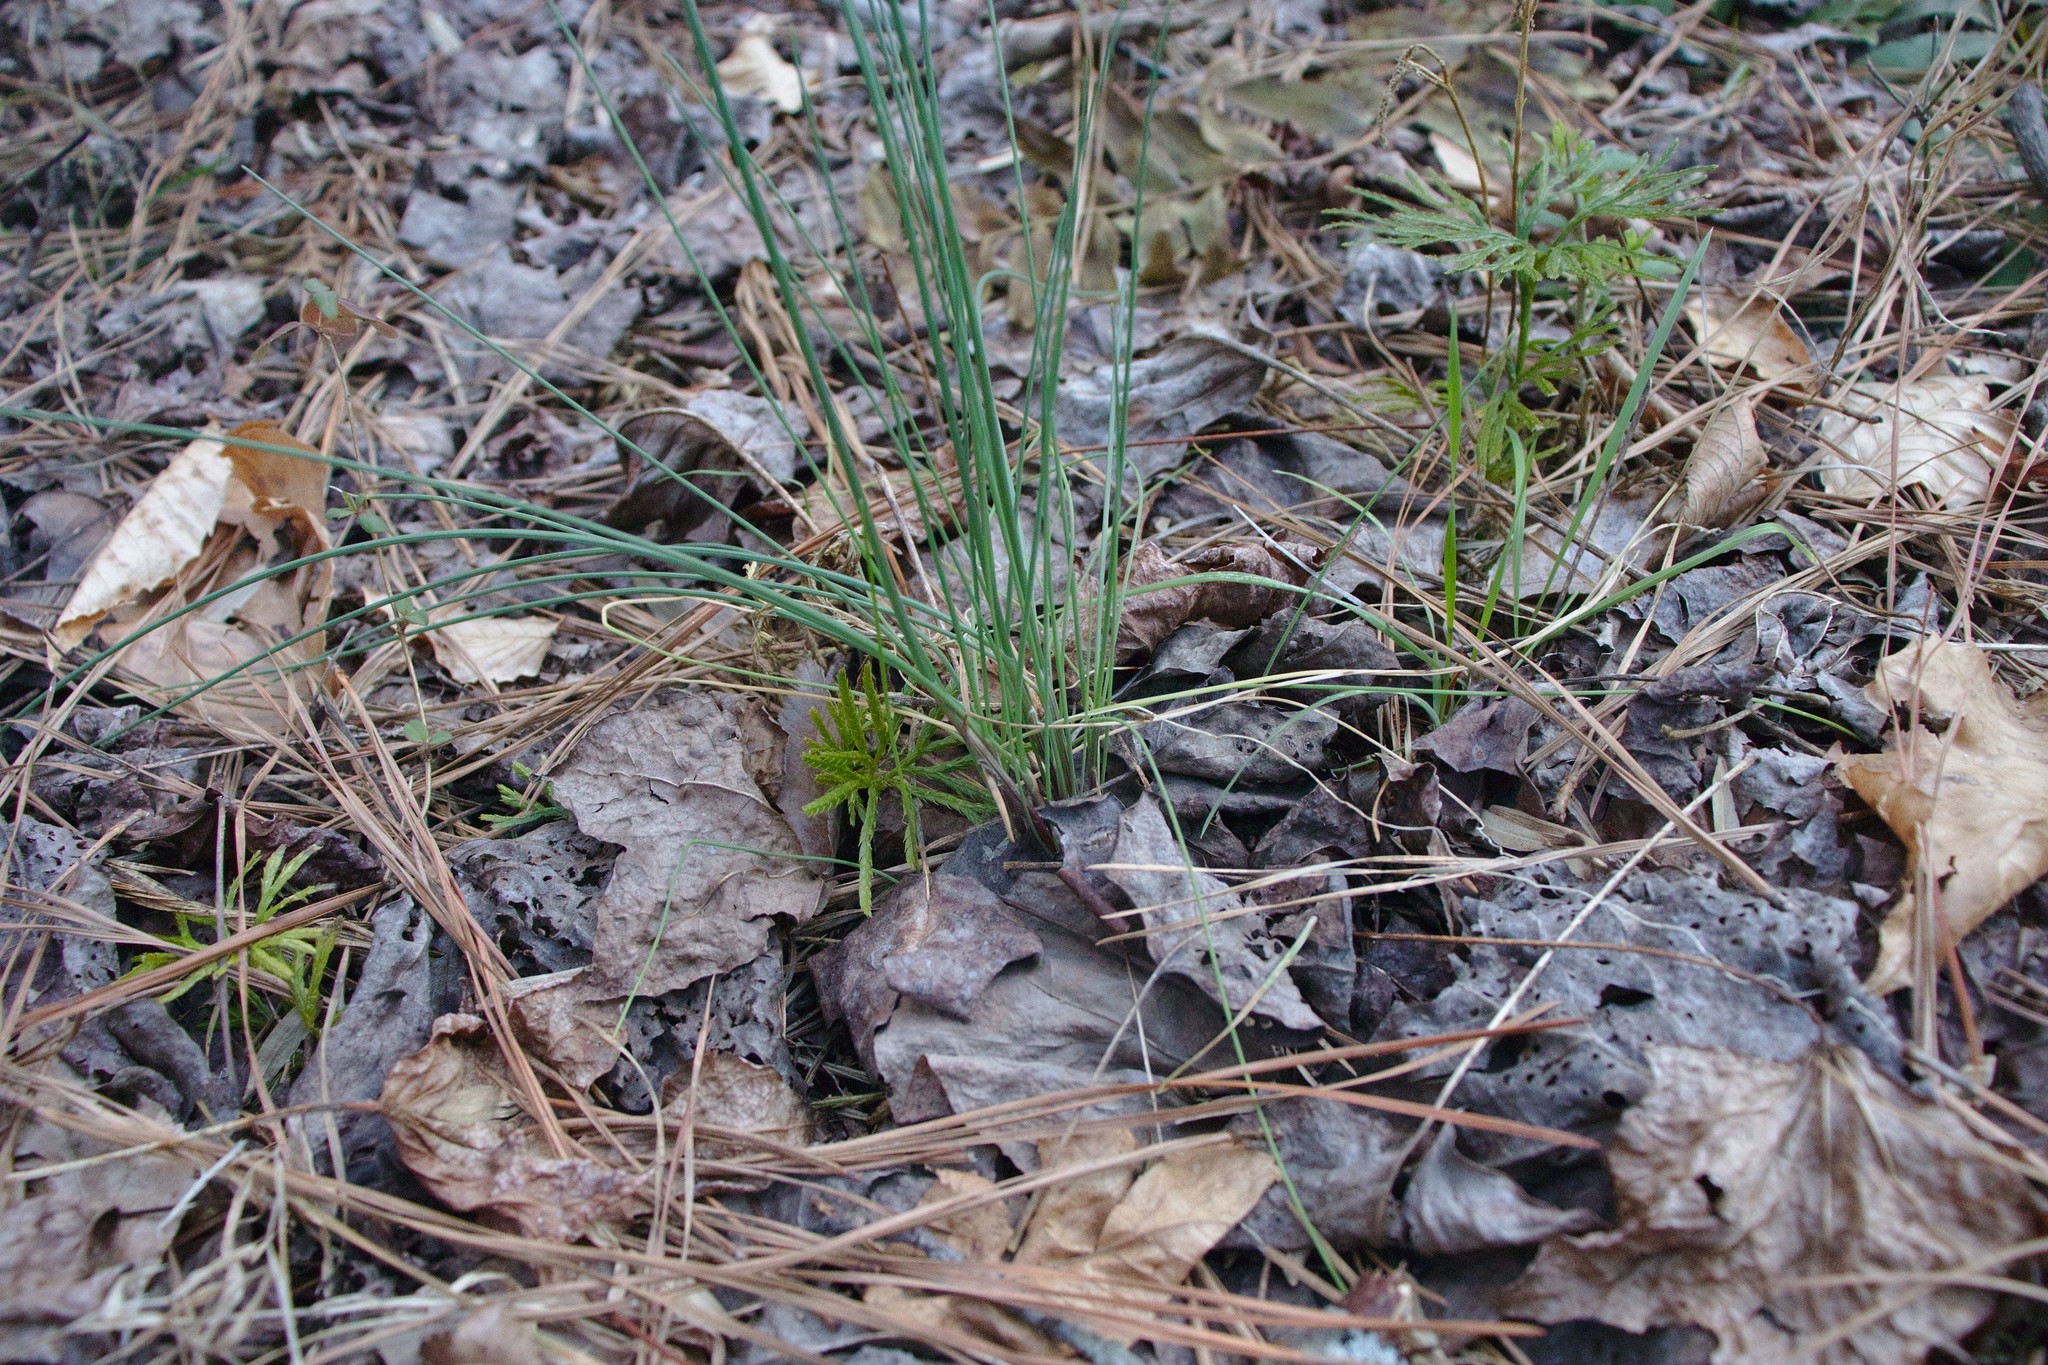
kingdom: Plantae
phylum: Tracheophyta
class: Liliopsida
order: Asparagales
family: Amaryllidaceae
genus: Allium
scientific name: Allium vineale
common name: Crow garlic
